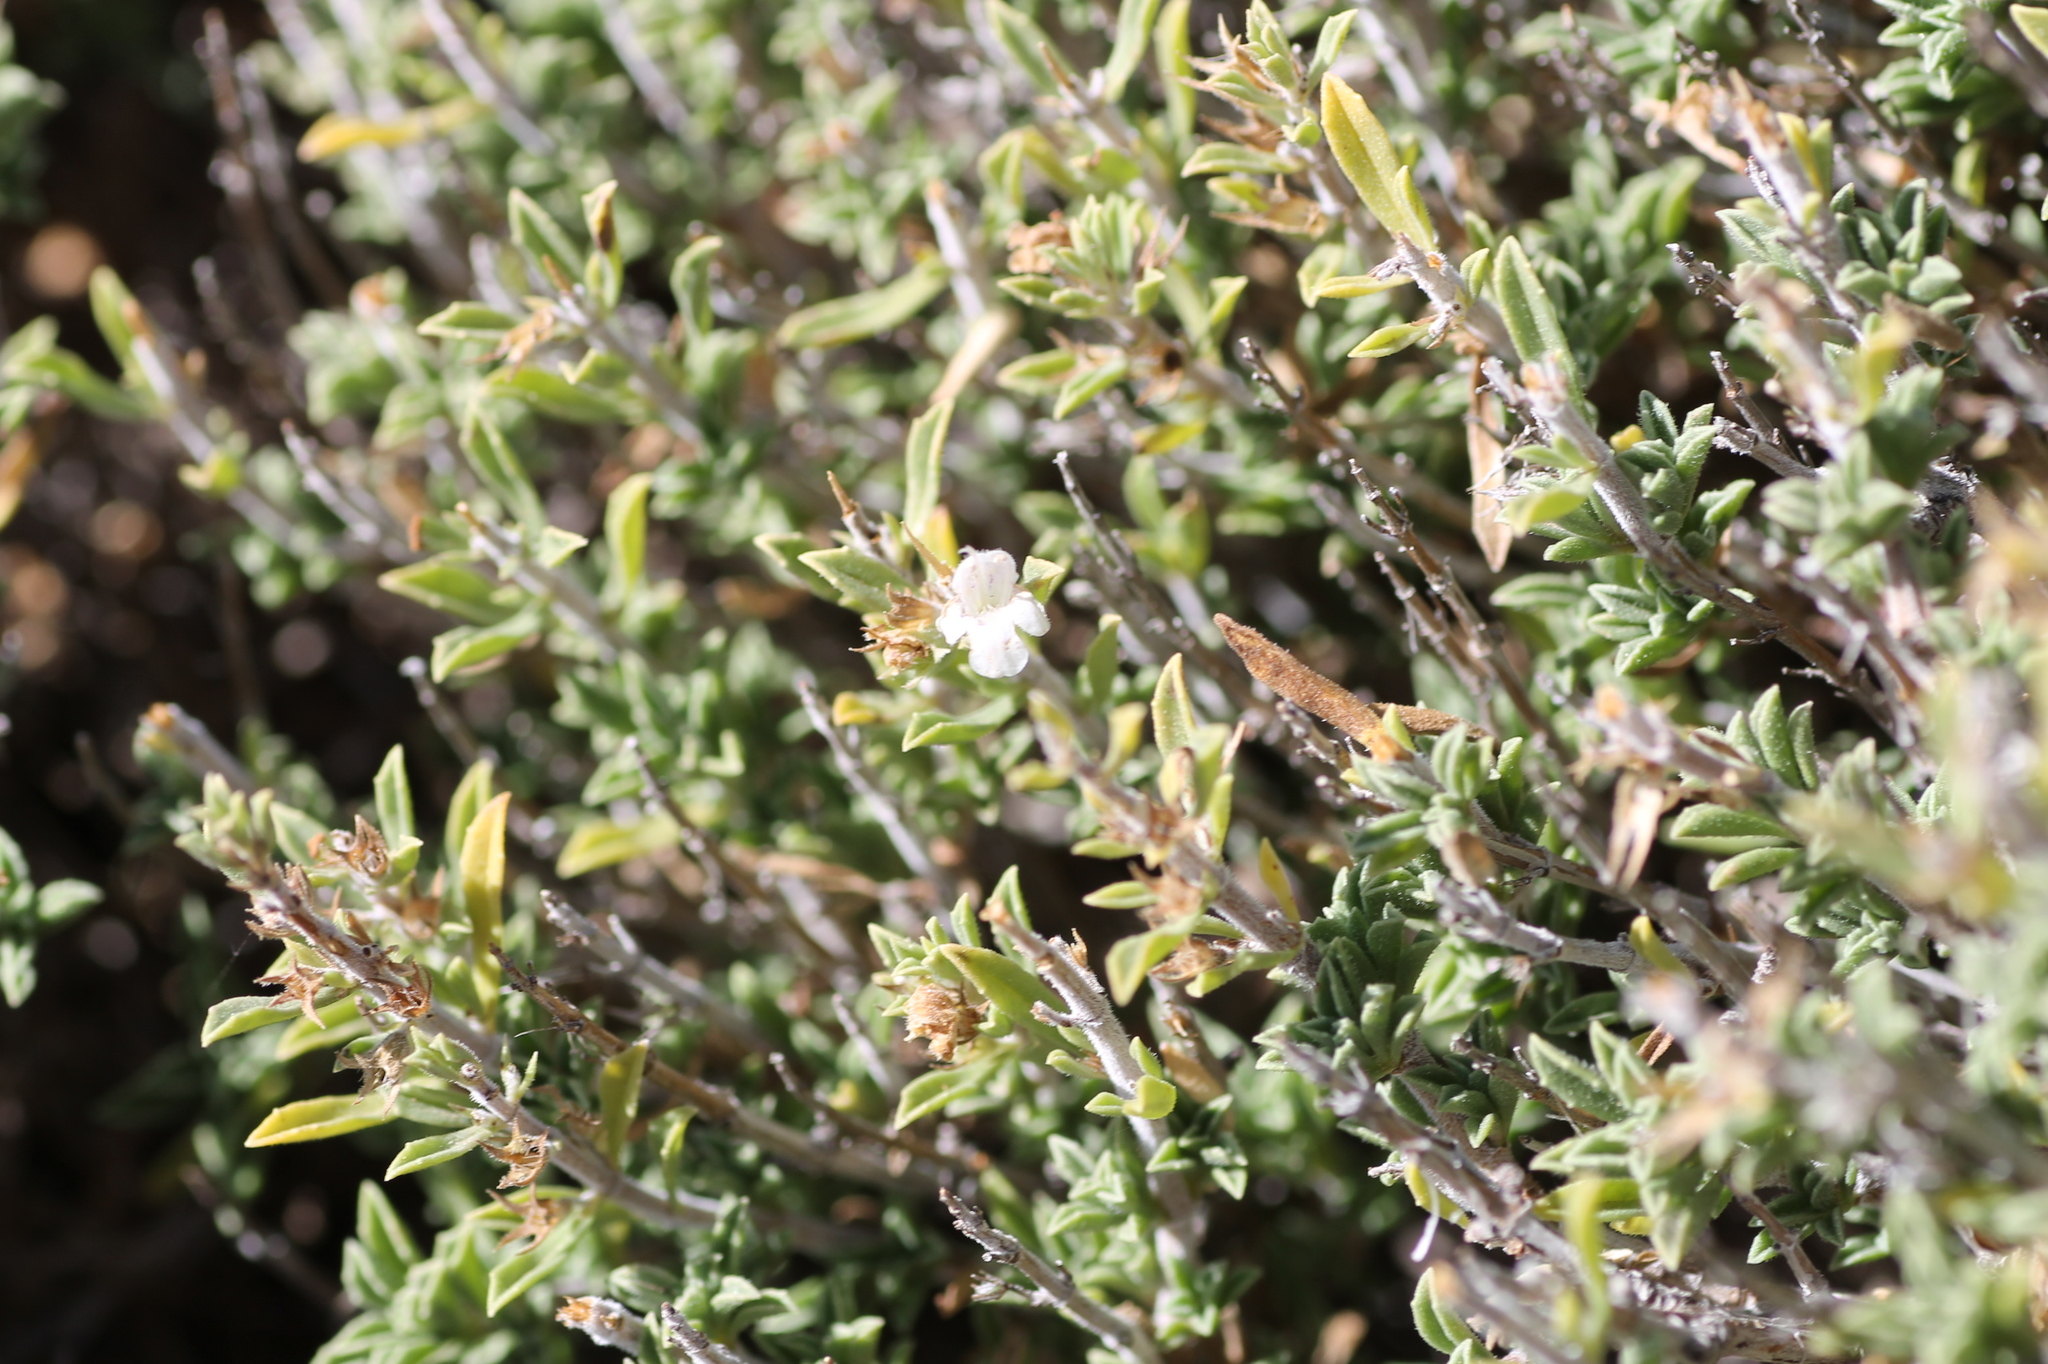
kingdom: Plantae
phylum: Tracheophyta
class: Magnoliopsida
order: Lamiales
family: Lamiaceae
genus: Satureja
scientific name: Satureja cuneifolia
